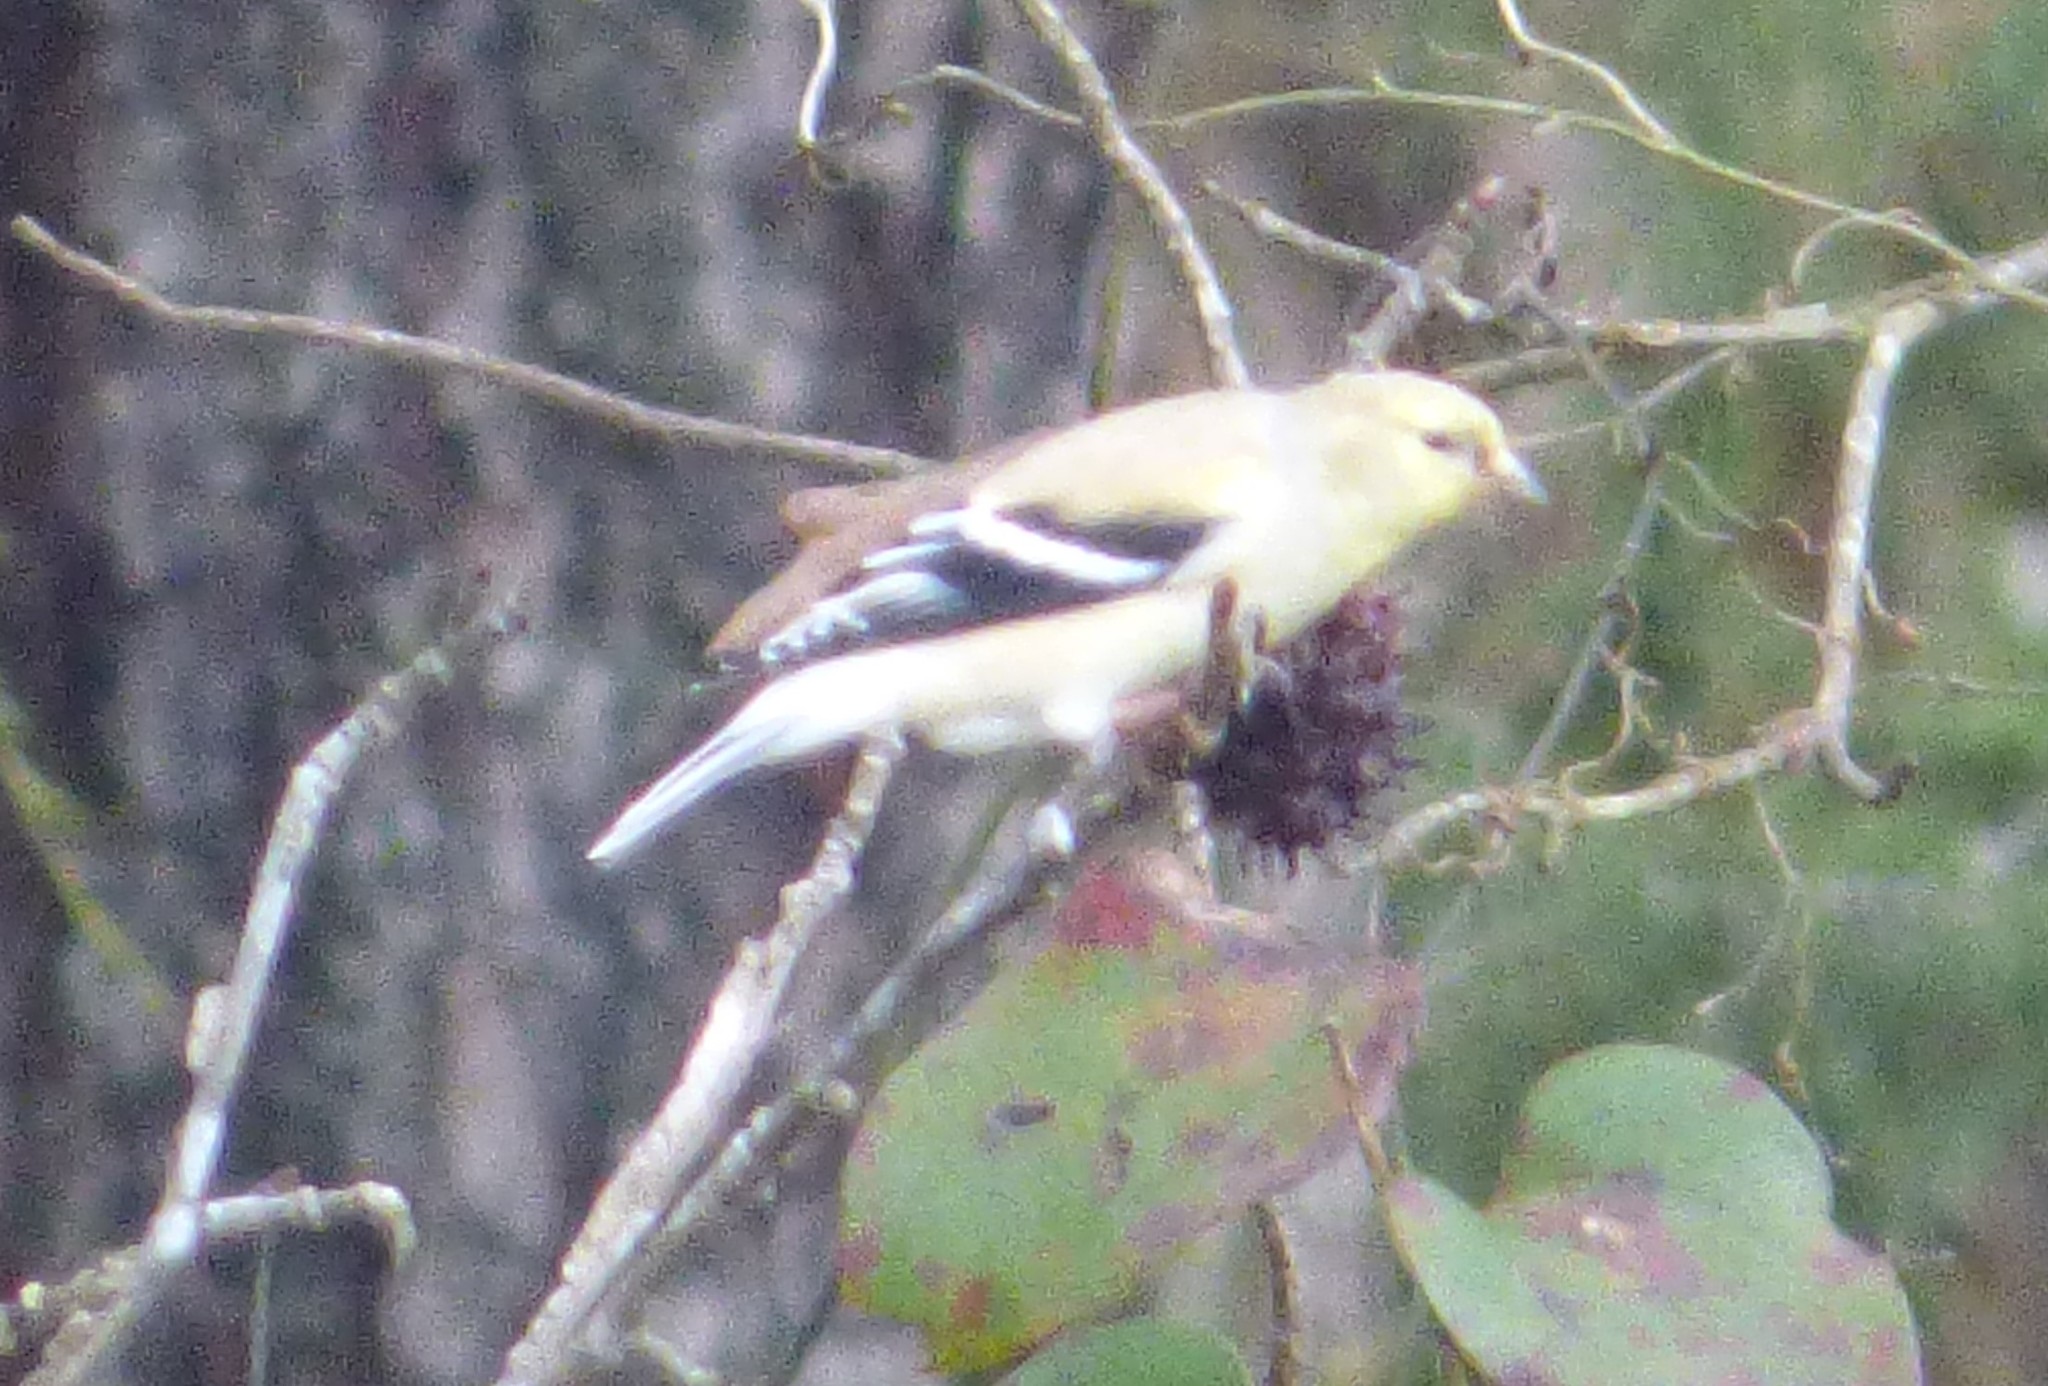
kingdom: Animalia
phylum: Chordata
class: Aves
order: Passeriformes
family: Fringillidae
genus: Spinus
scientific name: Spinus tristis
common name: American goldfinch
